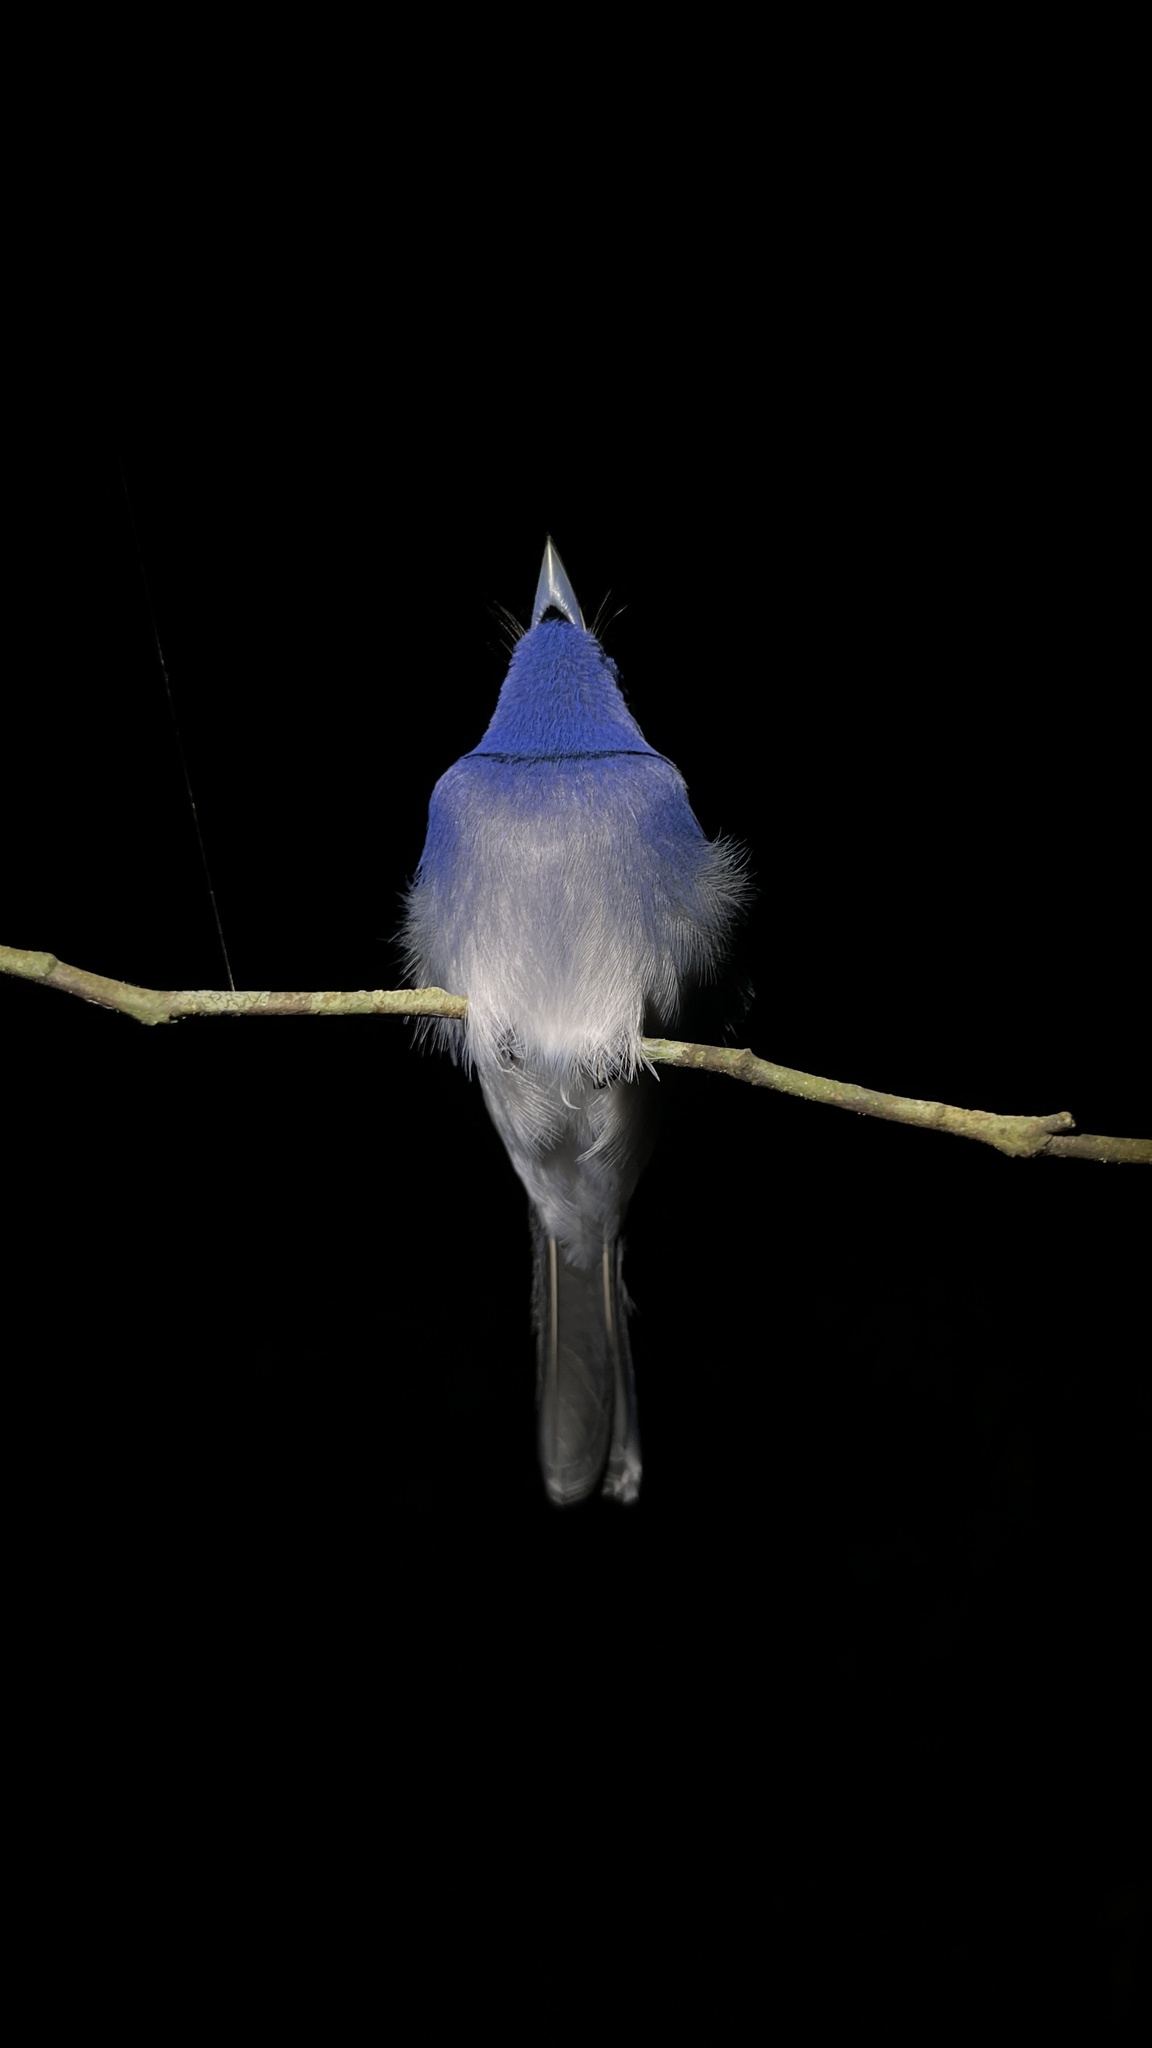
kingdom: Animalia
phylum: Chordata
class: Aves
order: Passeriformes
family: Monarchidae
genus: Hypothymis
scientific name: Hypothymis azurea
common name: Black-naped monarch
